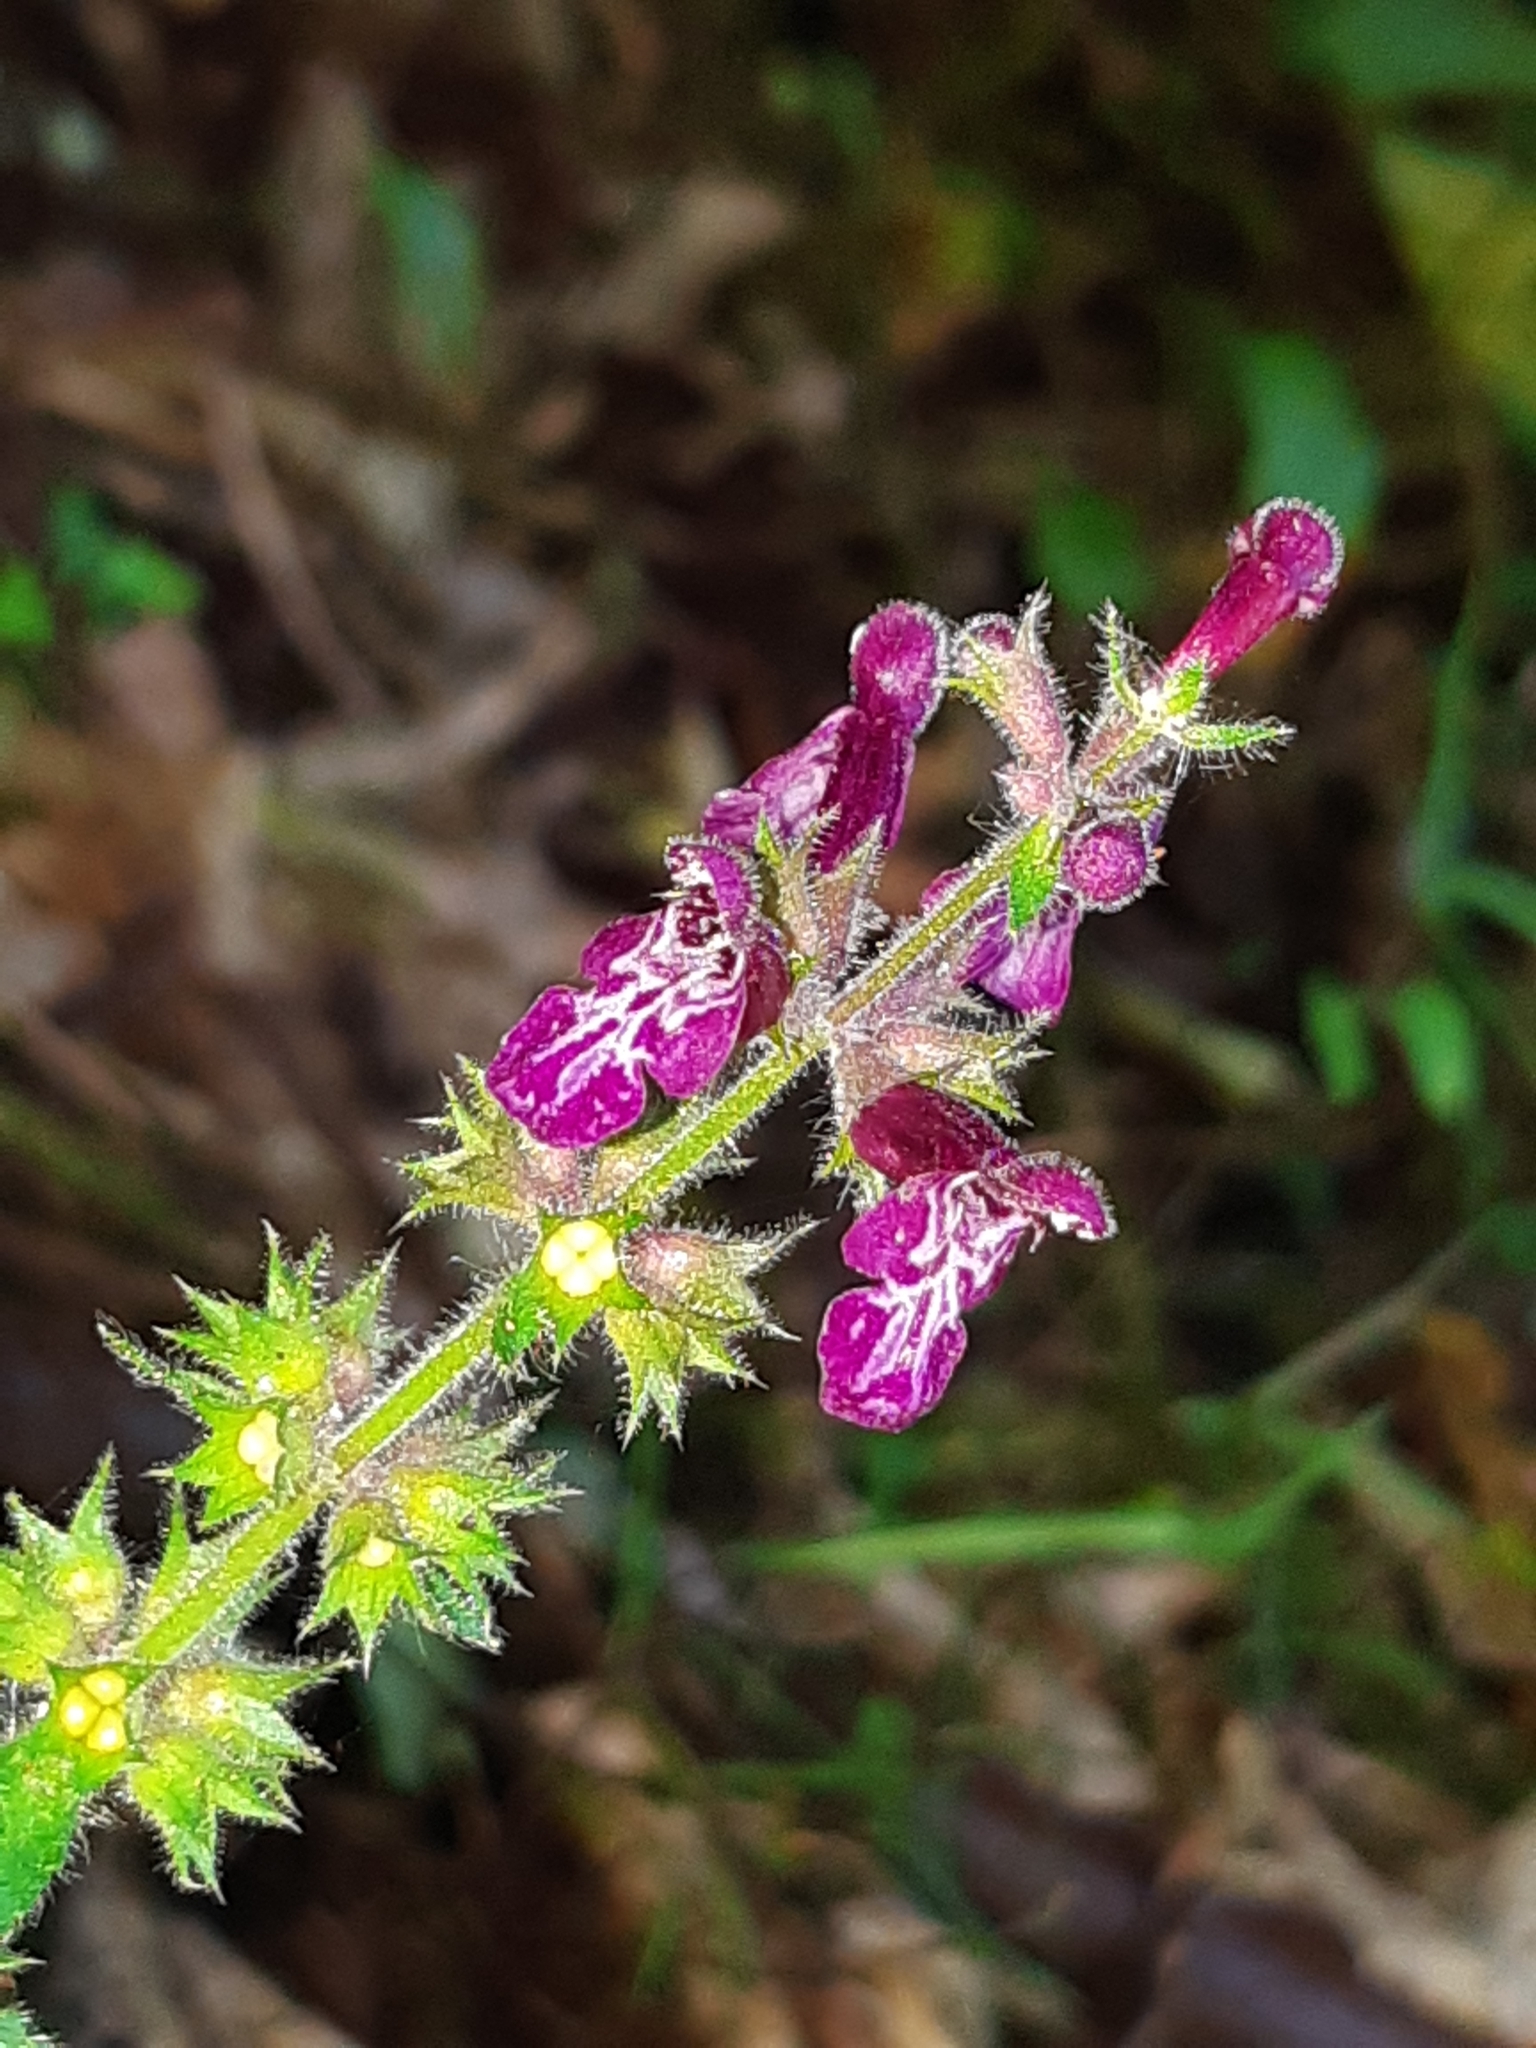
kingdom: Plantae
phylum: Tracheophyta
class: Magnoliopsida
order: Lamiales
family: Lamiaceae
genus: Stachys
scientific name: Stachys sylvatica
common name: Hedge woundwort
